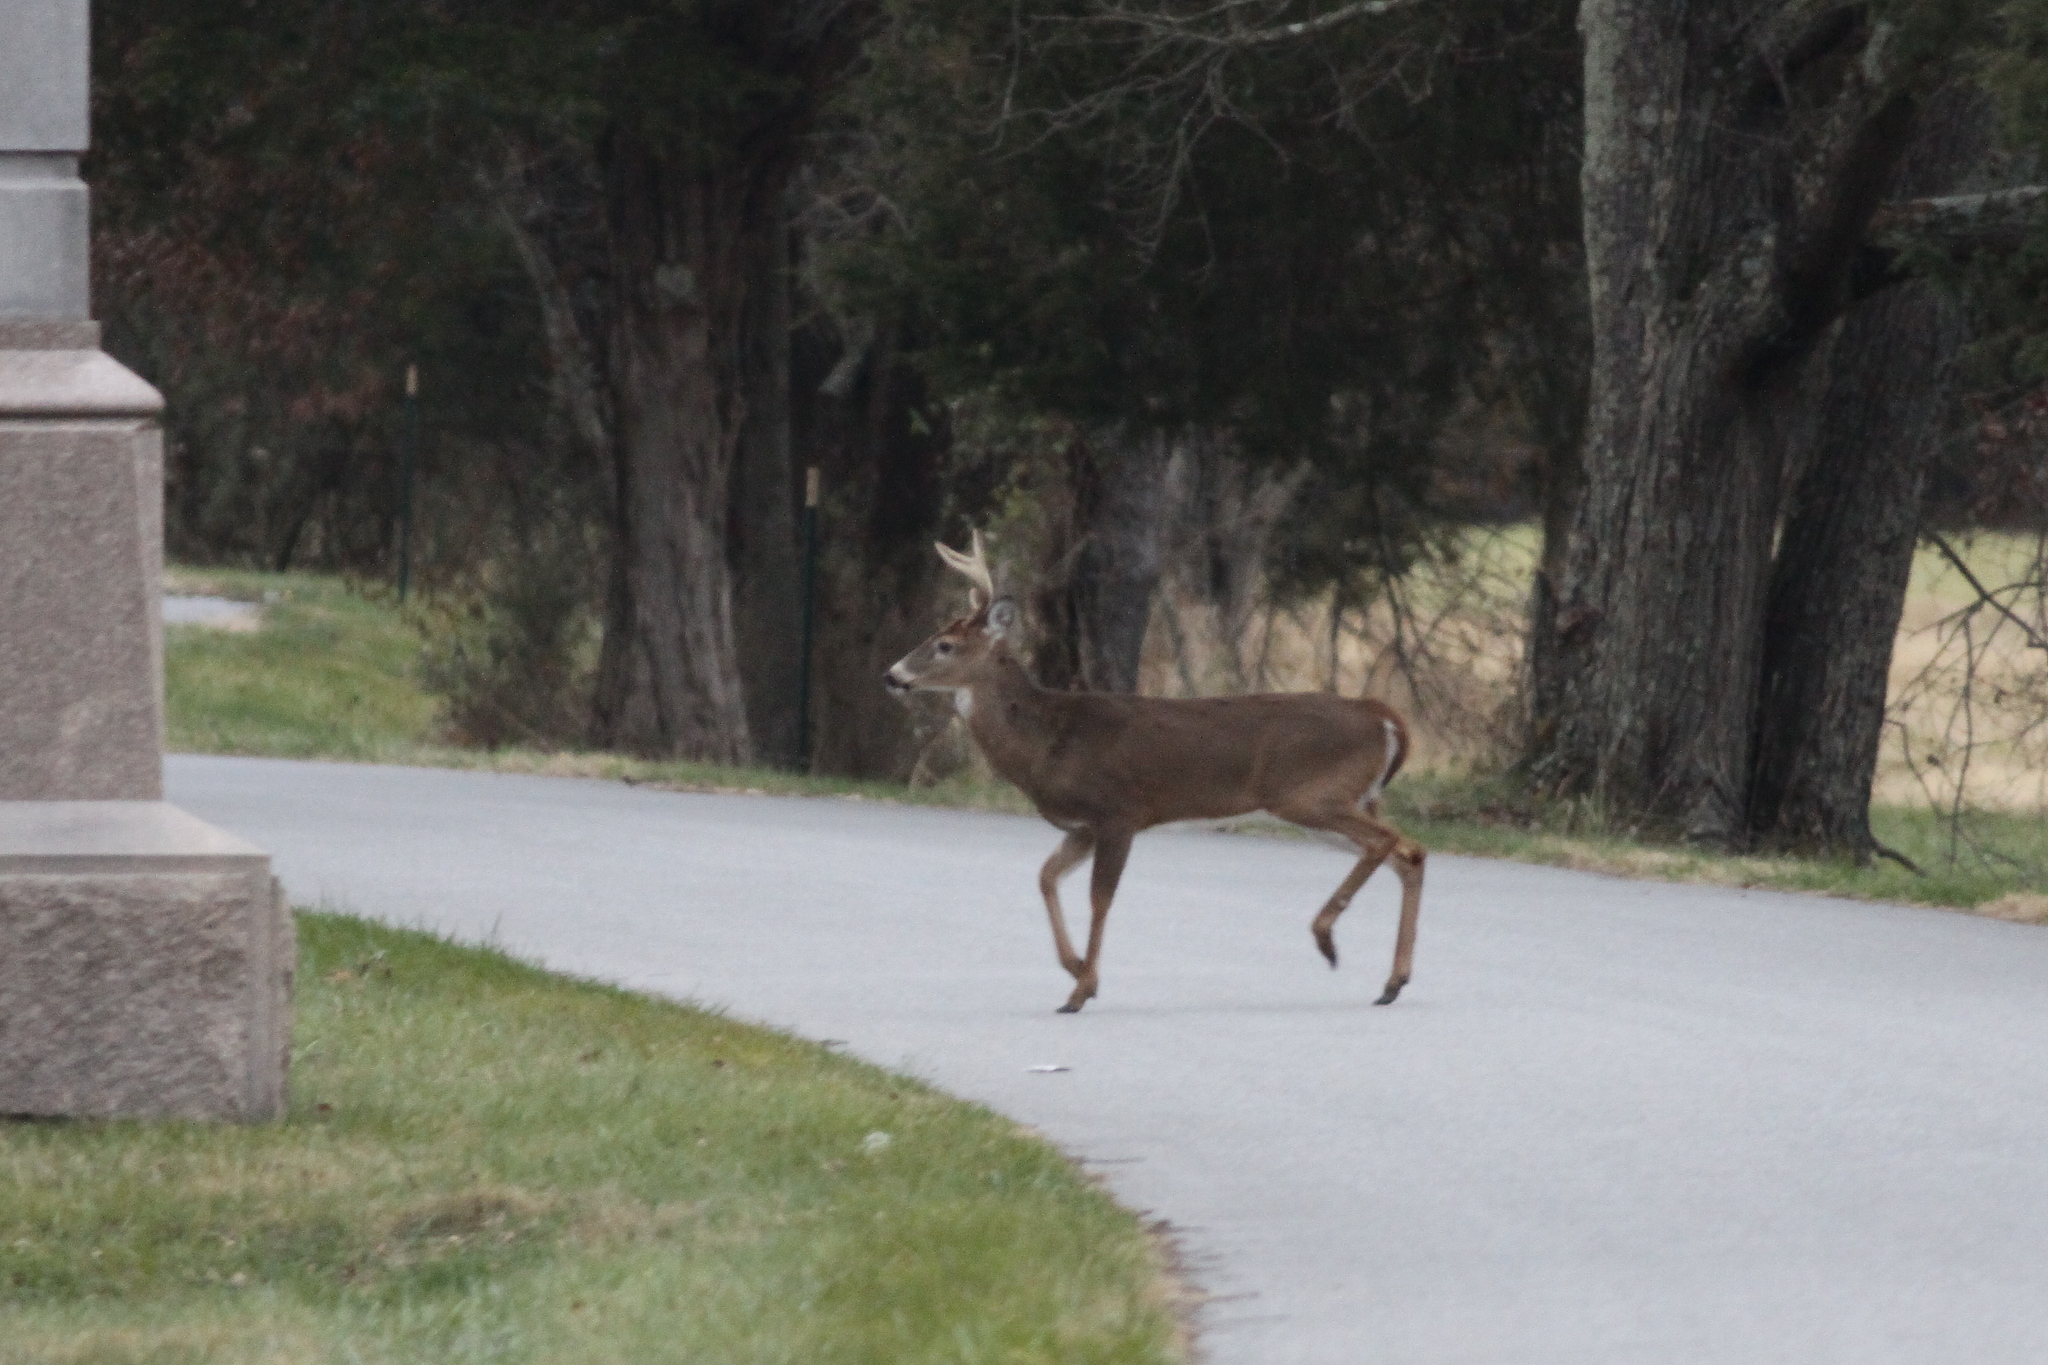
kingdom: Animalia
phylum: Chordata
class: Mammalia
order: Artiodactyla
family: Cervidae
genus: Odocoileus
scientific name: Odocoileus virginianus
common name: White-tailed deer
